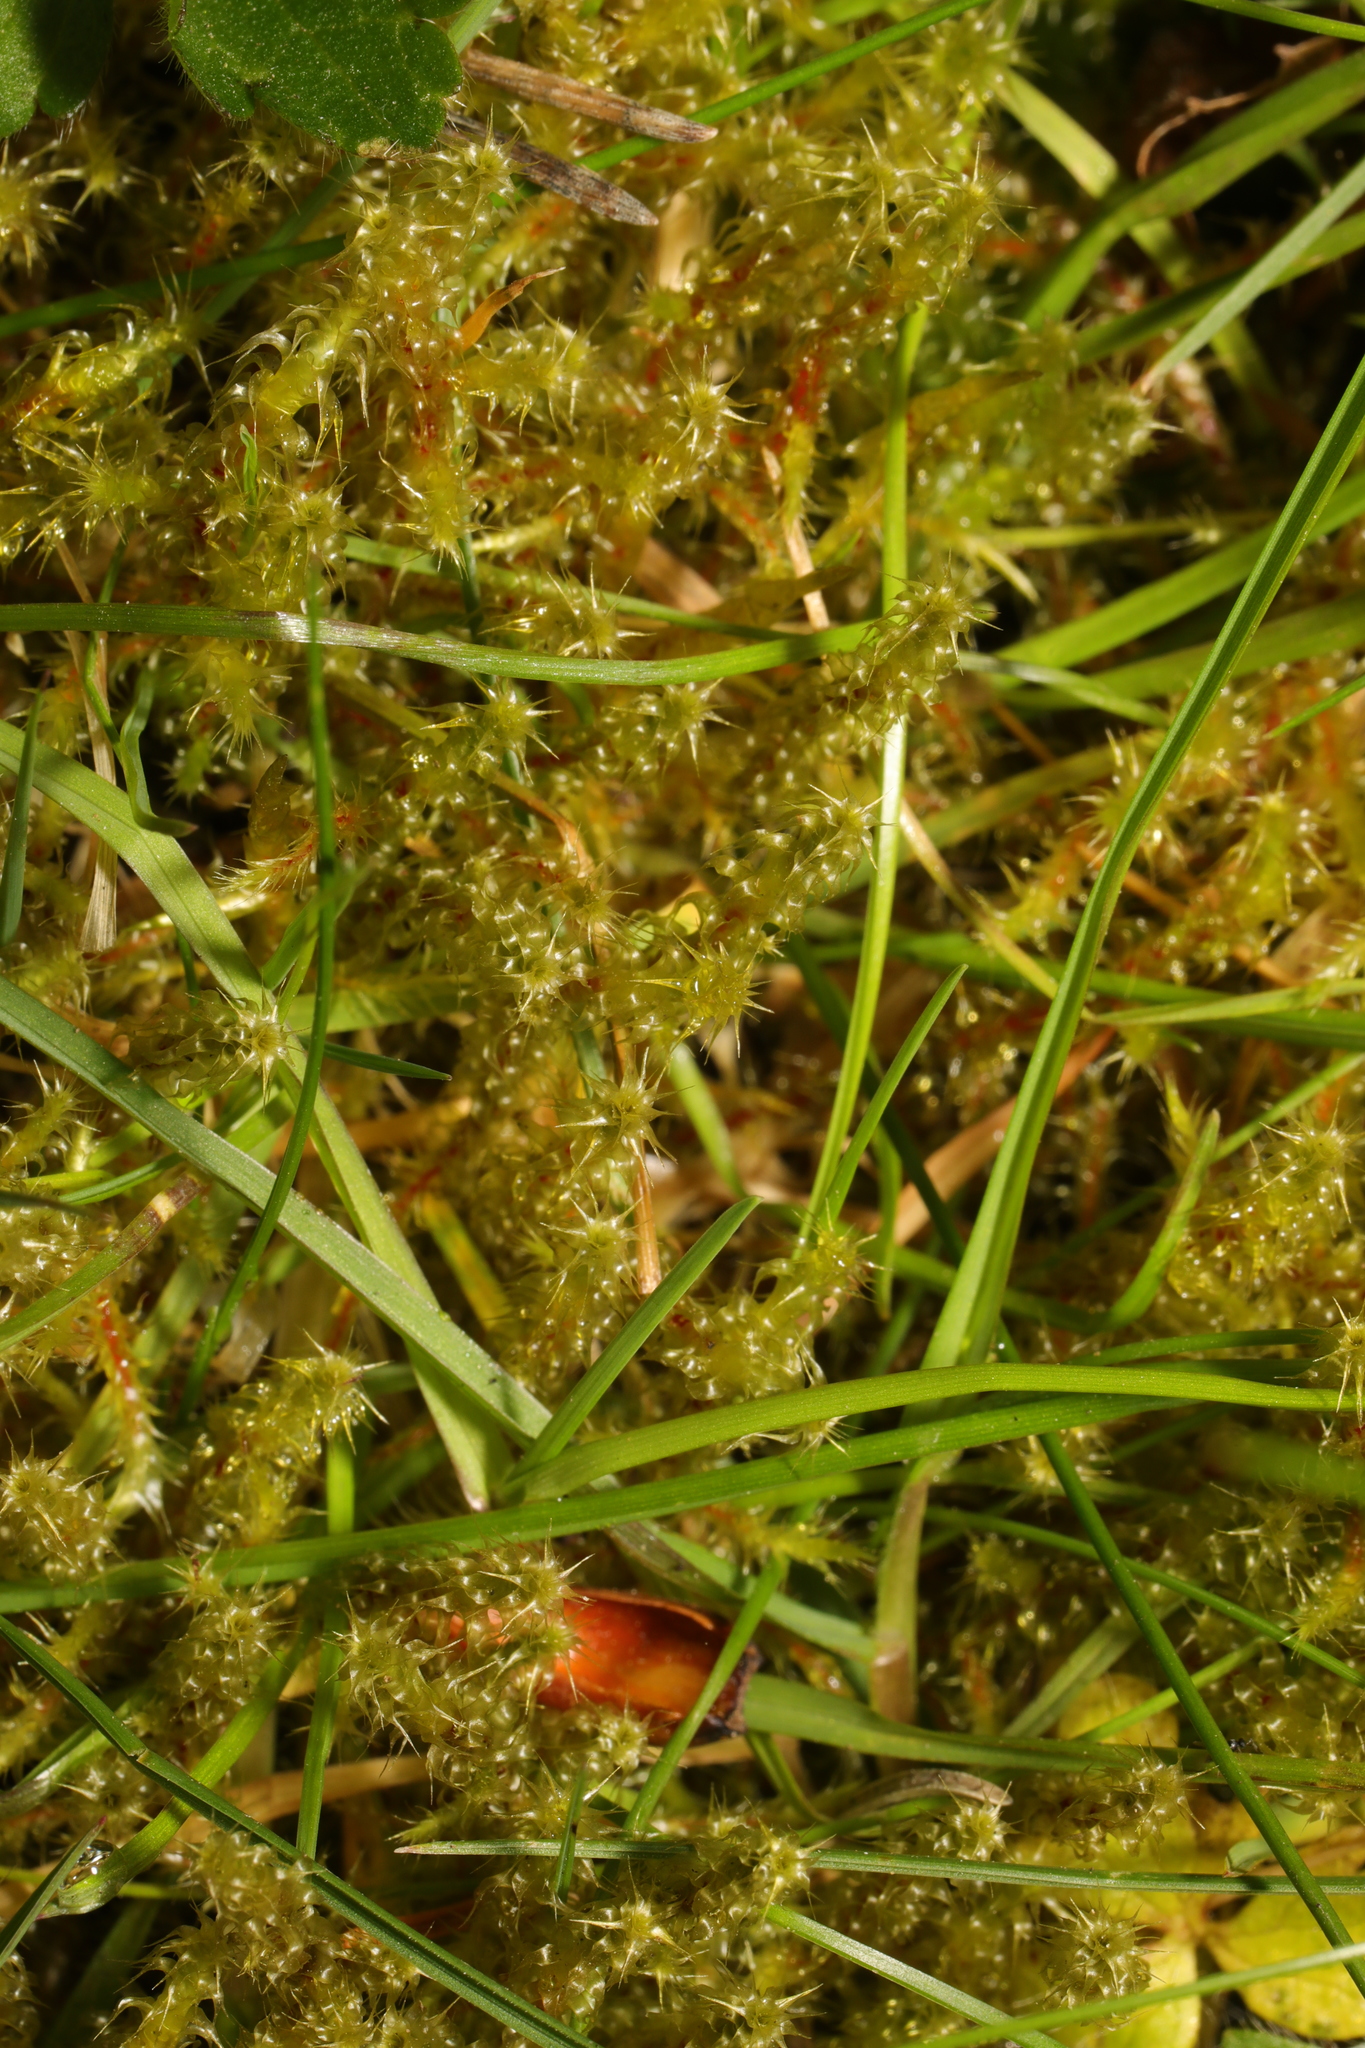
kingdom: Plantae
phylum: Bryophyta
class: Bryopsida
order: Hypnales
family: Hylocomiaceae
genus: Rhytidiadelphus
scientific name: Rhytidiadelphus squarrosus
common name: Springy turf-moss
